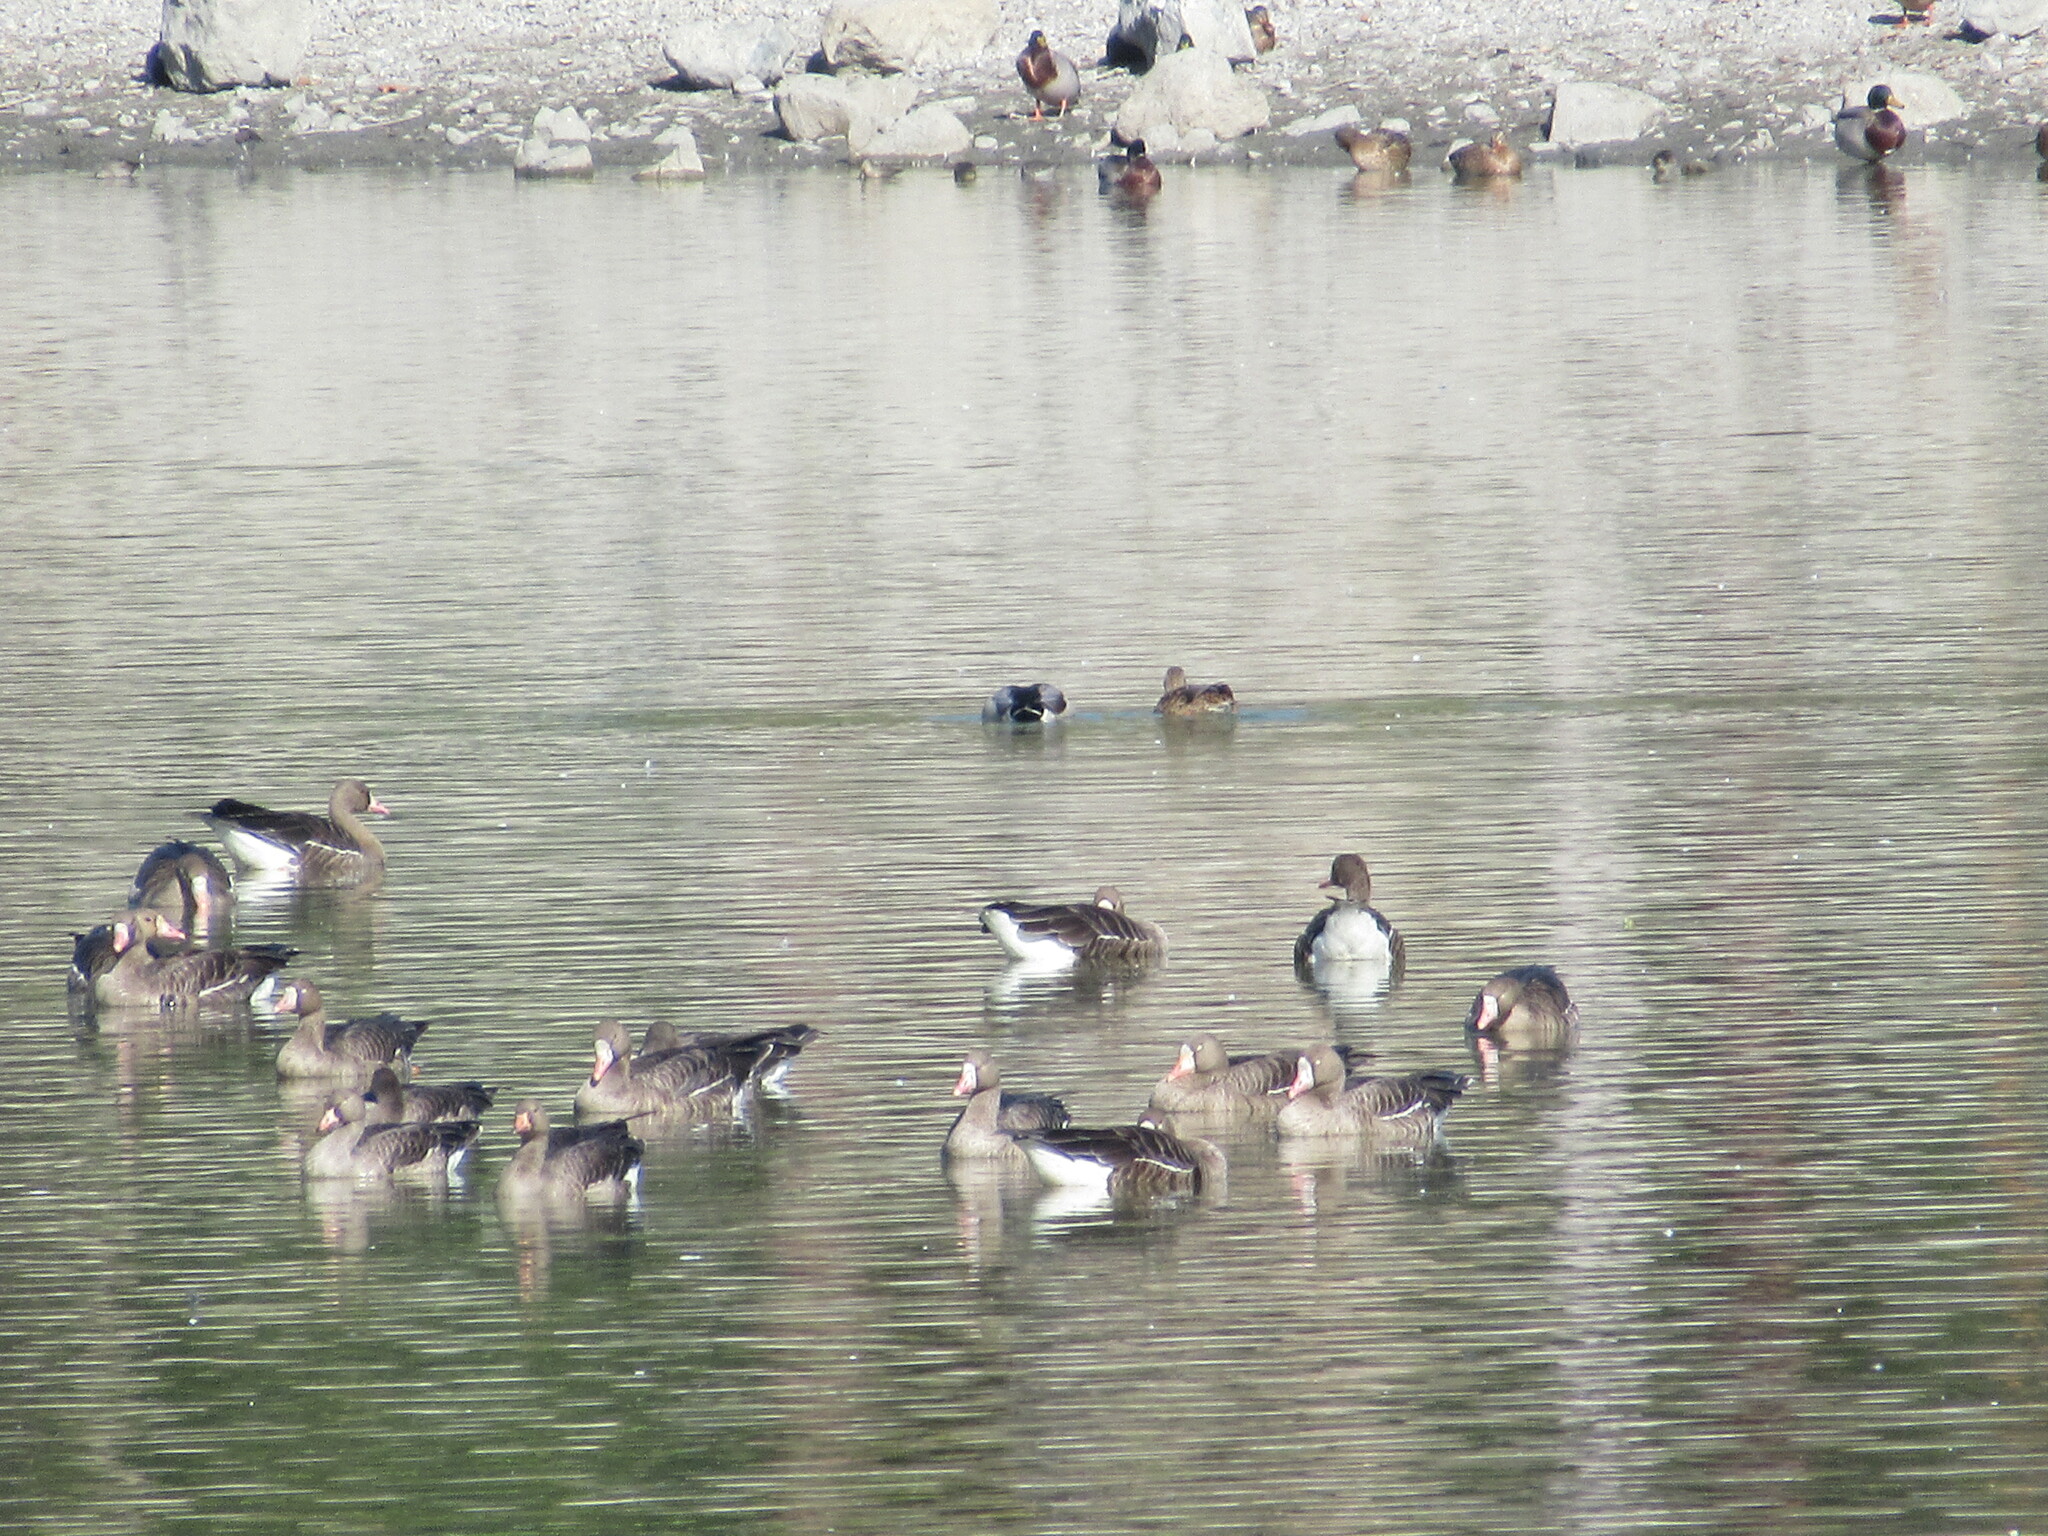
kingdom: Animalia
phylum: Chordata
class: Aves
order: Anseriformes
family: Anatidae
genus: Anser
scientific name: Anser albifrons
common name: Greater white-fronted goose
